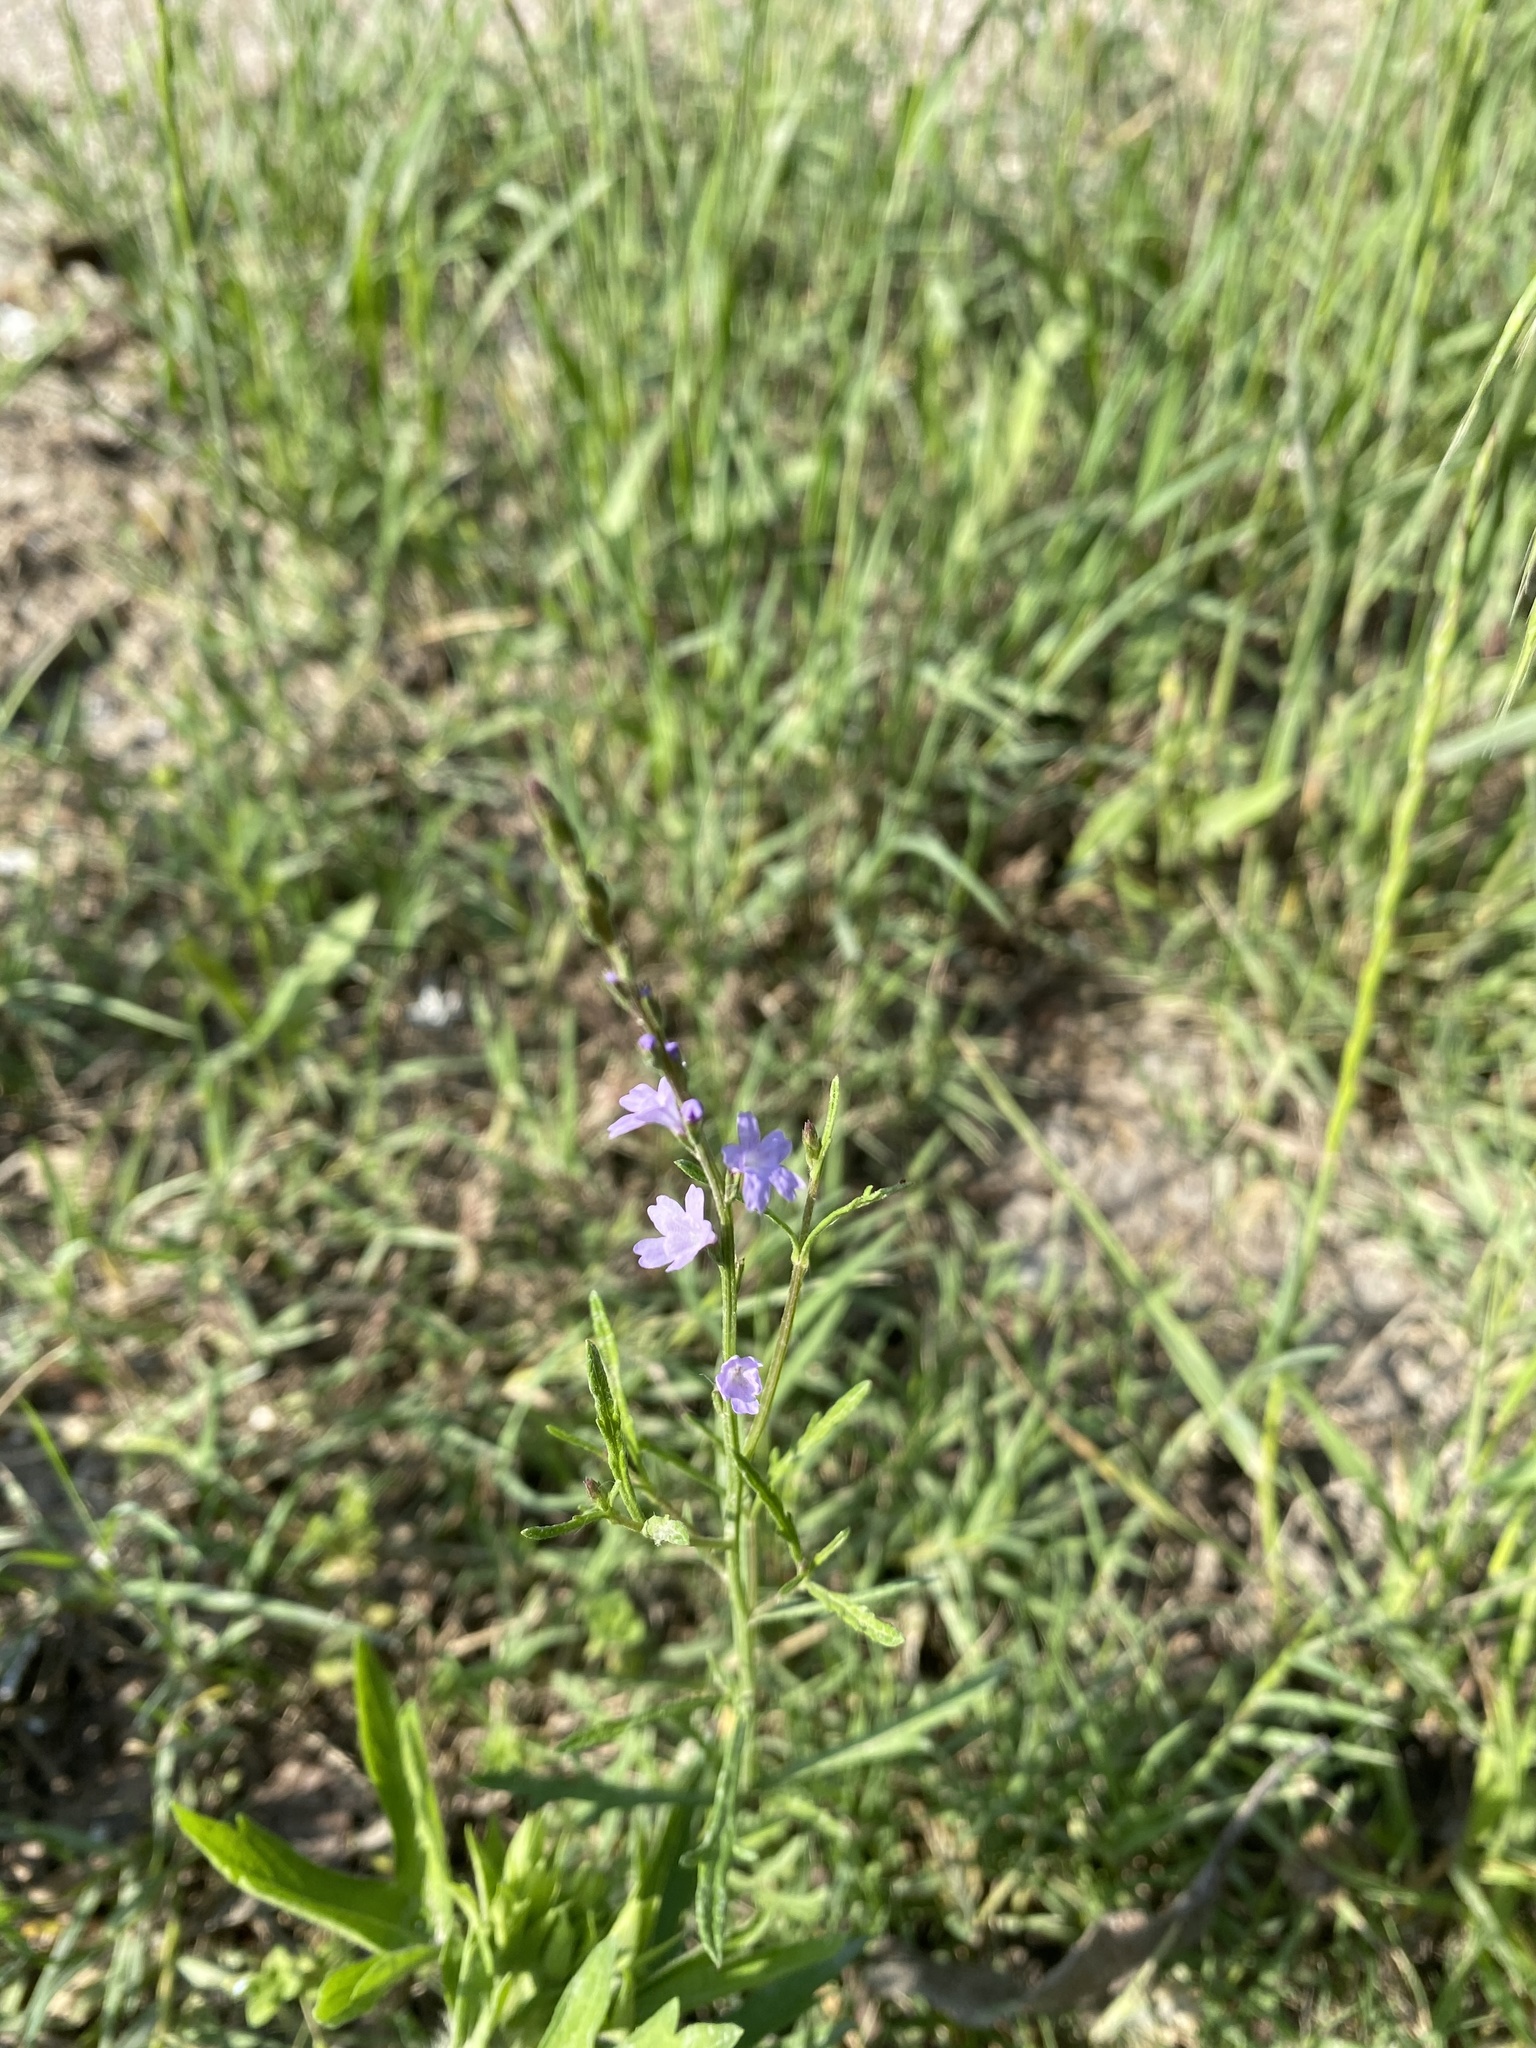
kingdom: Plantae
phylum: Tracheophyta
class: Magnoliopsida
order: Lamiales
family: Verbenaceae
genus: Verbena
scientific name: Verbena halei
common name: Texas vervain
